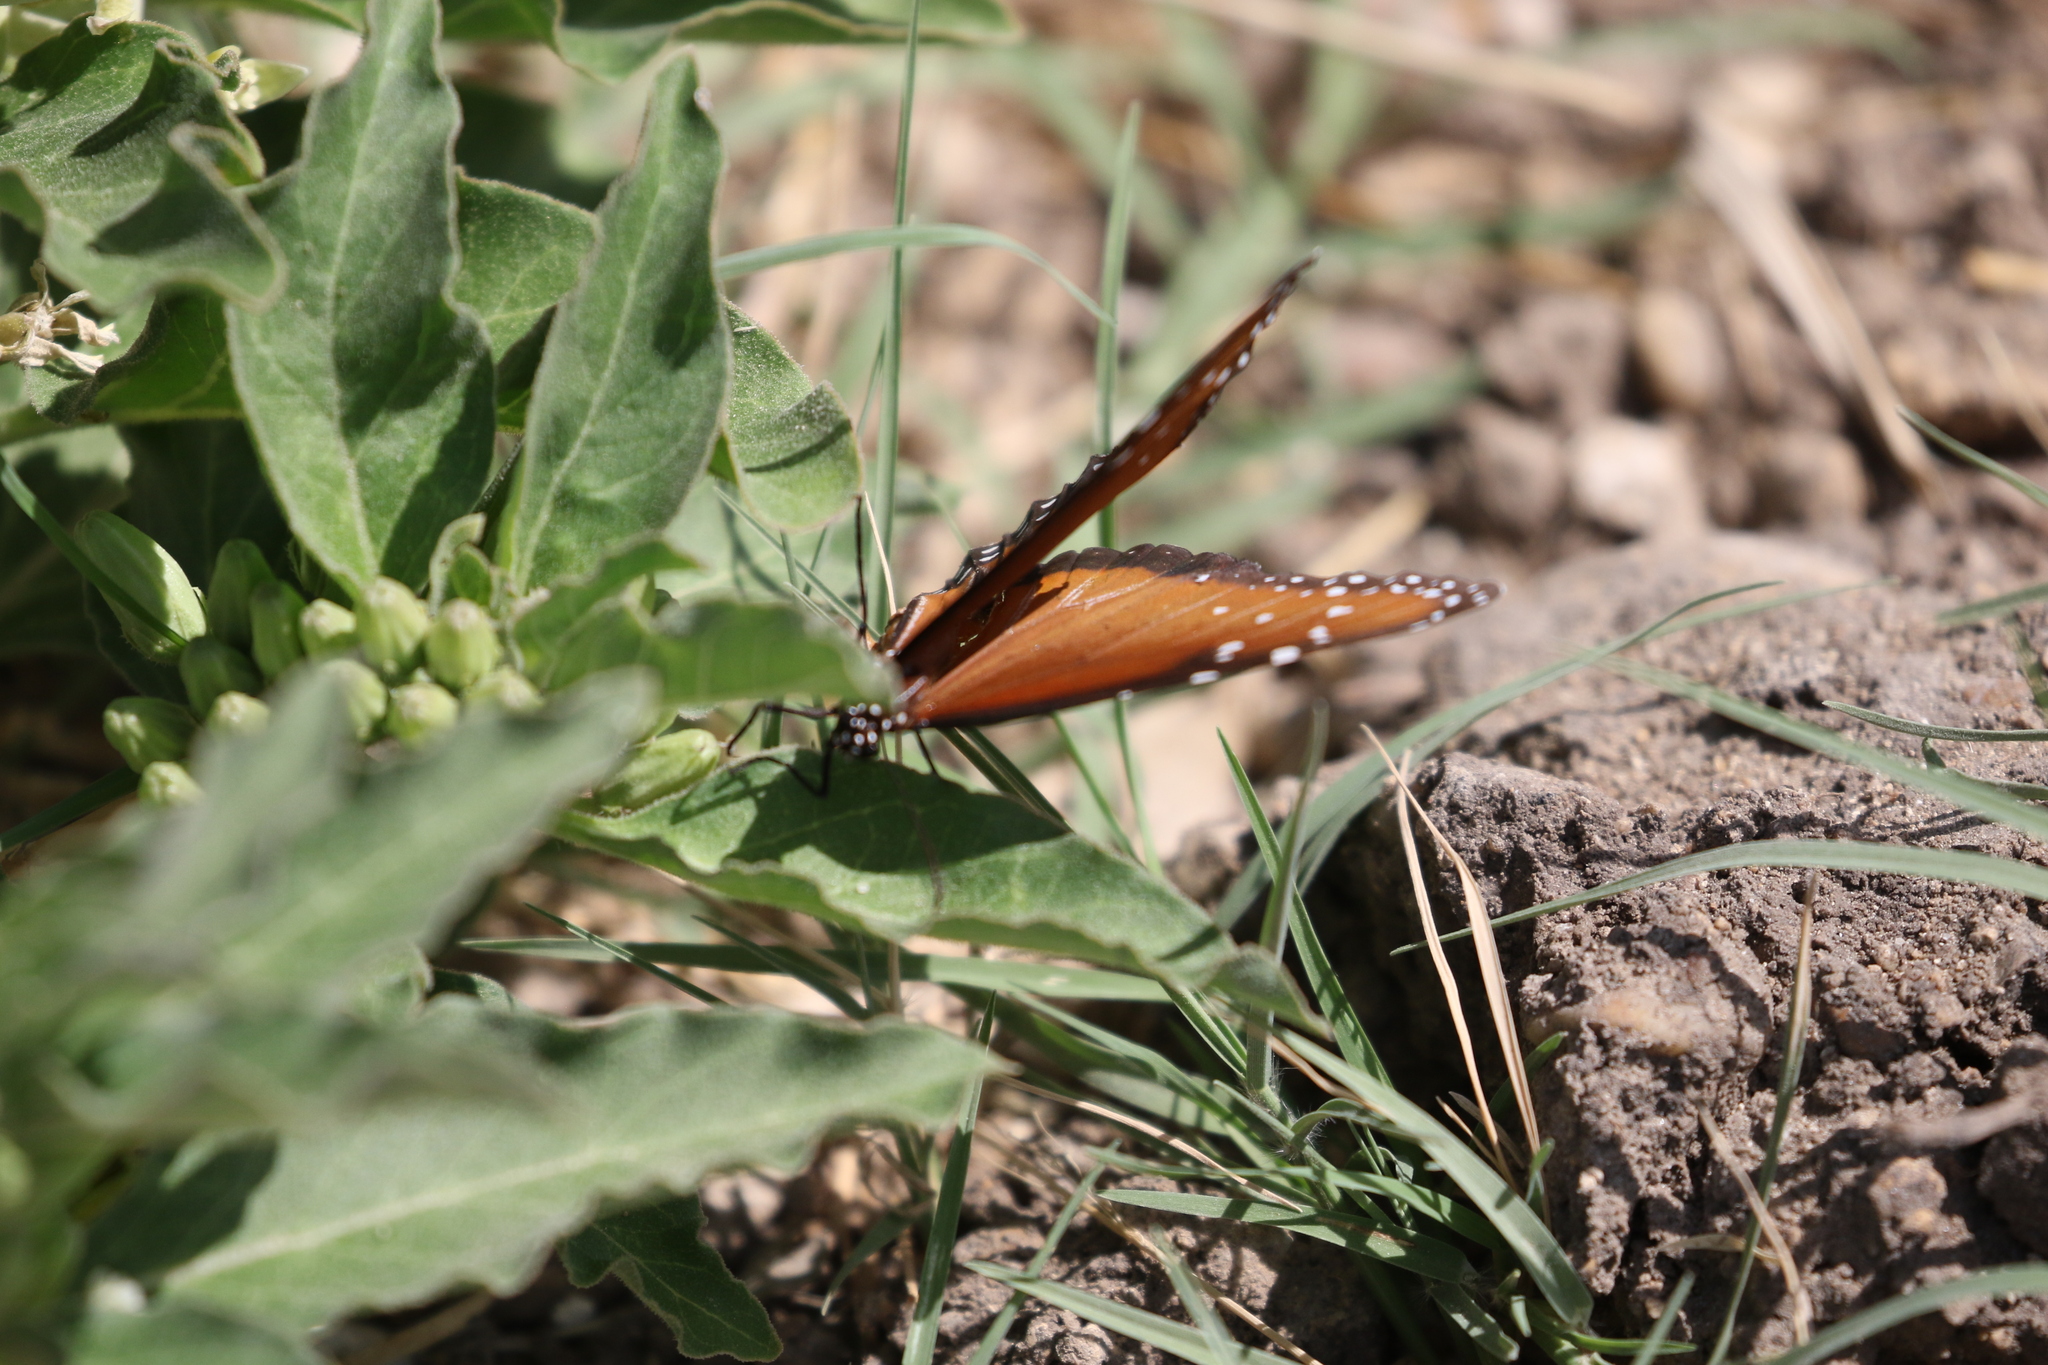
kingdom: Plantae
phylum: Tracheophyta
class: Magnoliopsida
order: Gentianales
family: Apocynaceae
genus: Asclepias
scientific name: Asclepias oenotheroides
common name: Zizotes milkweed
